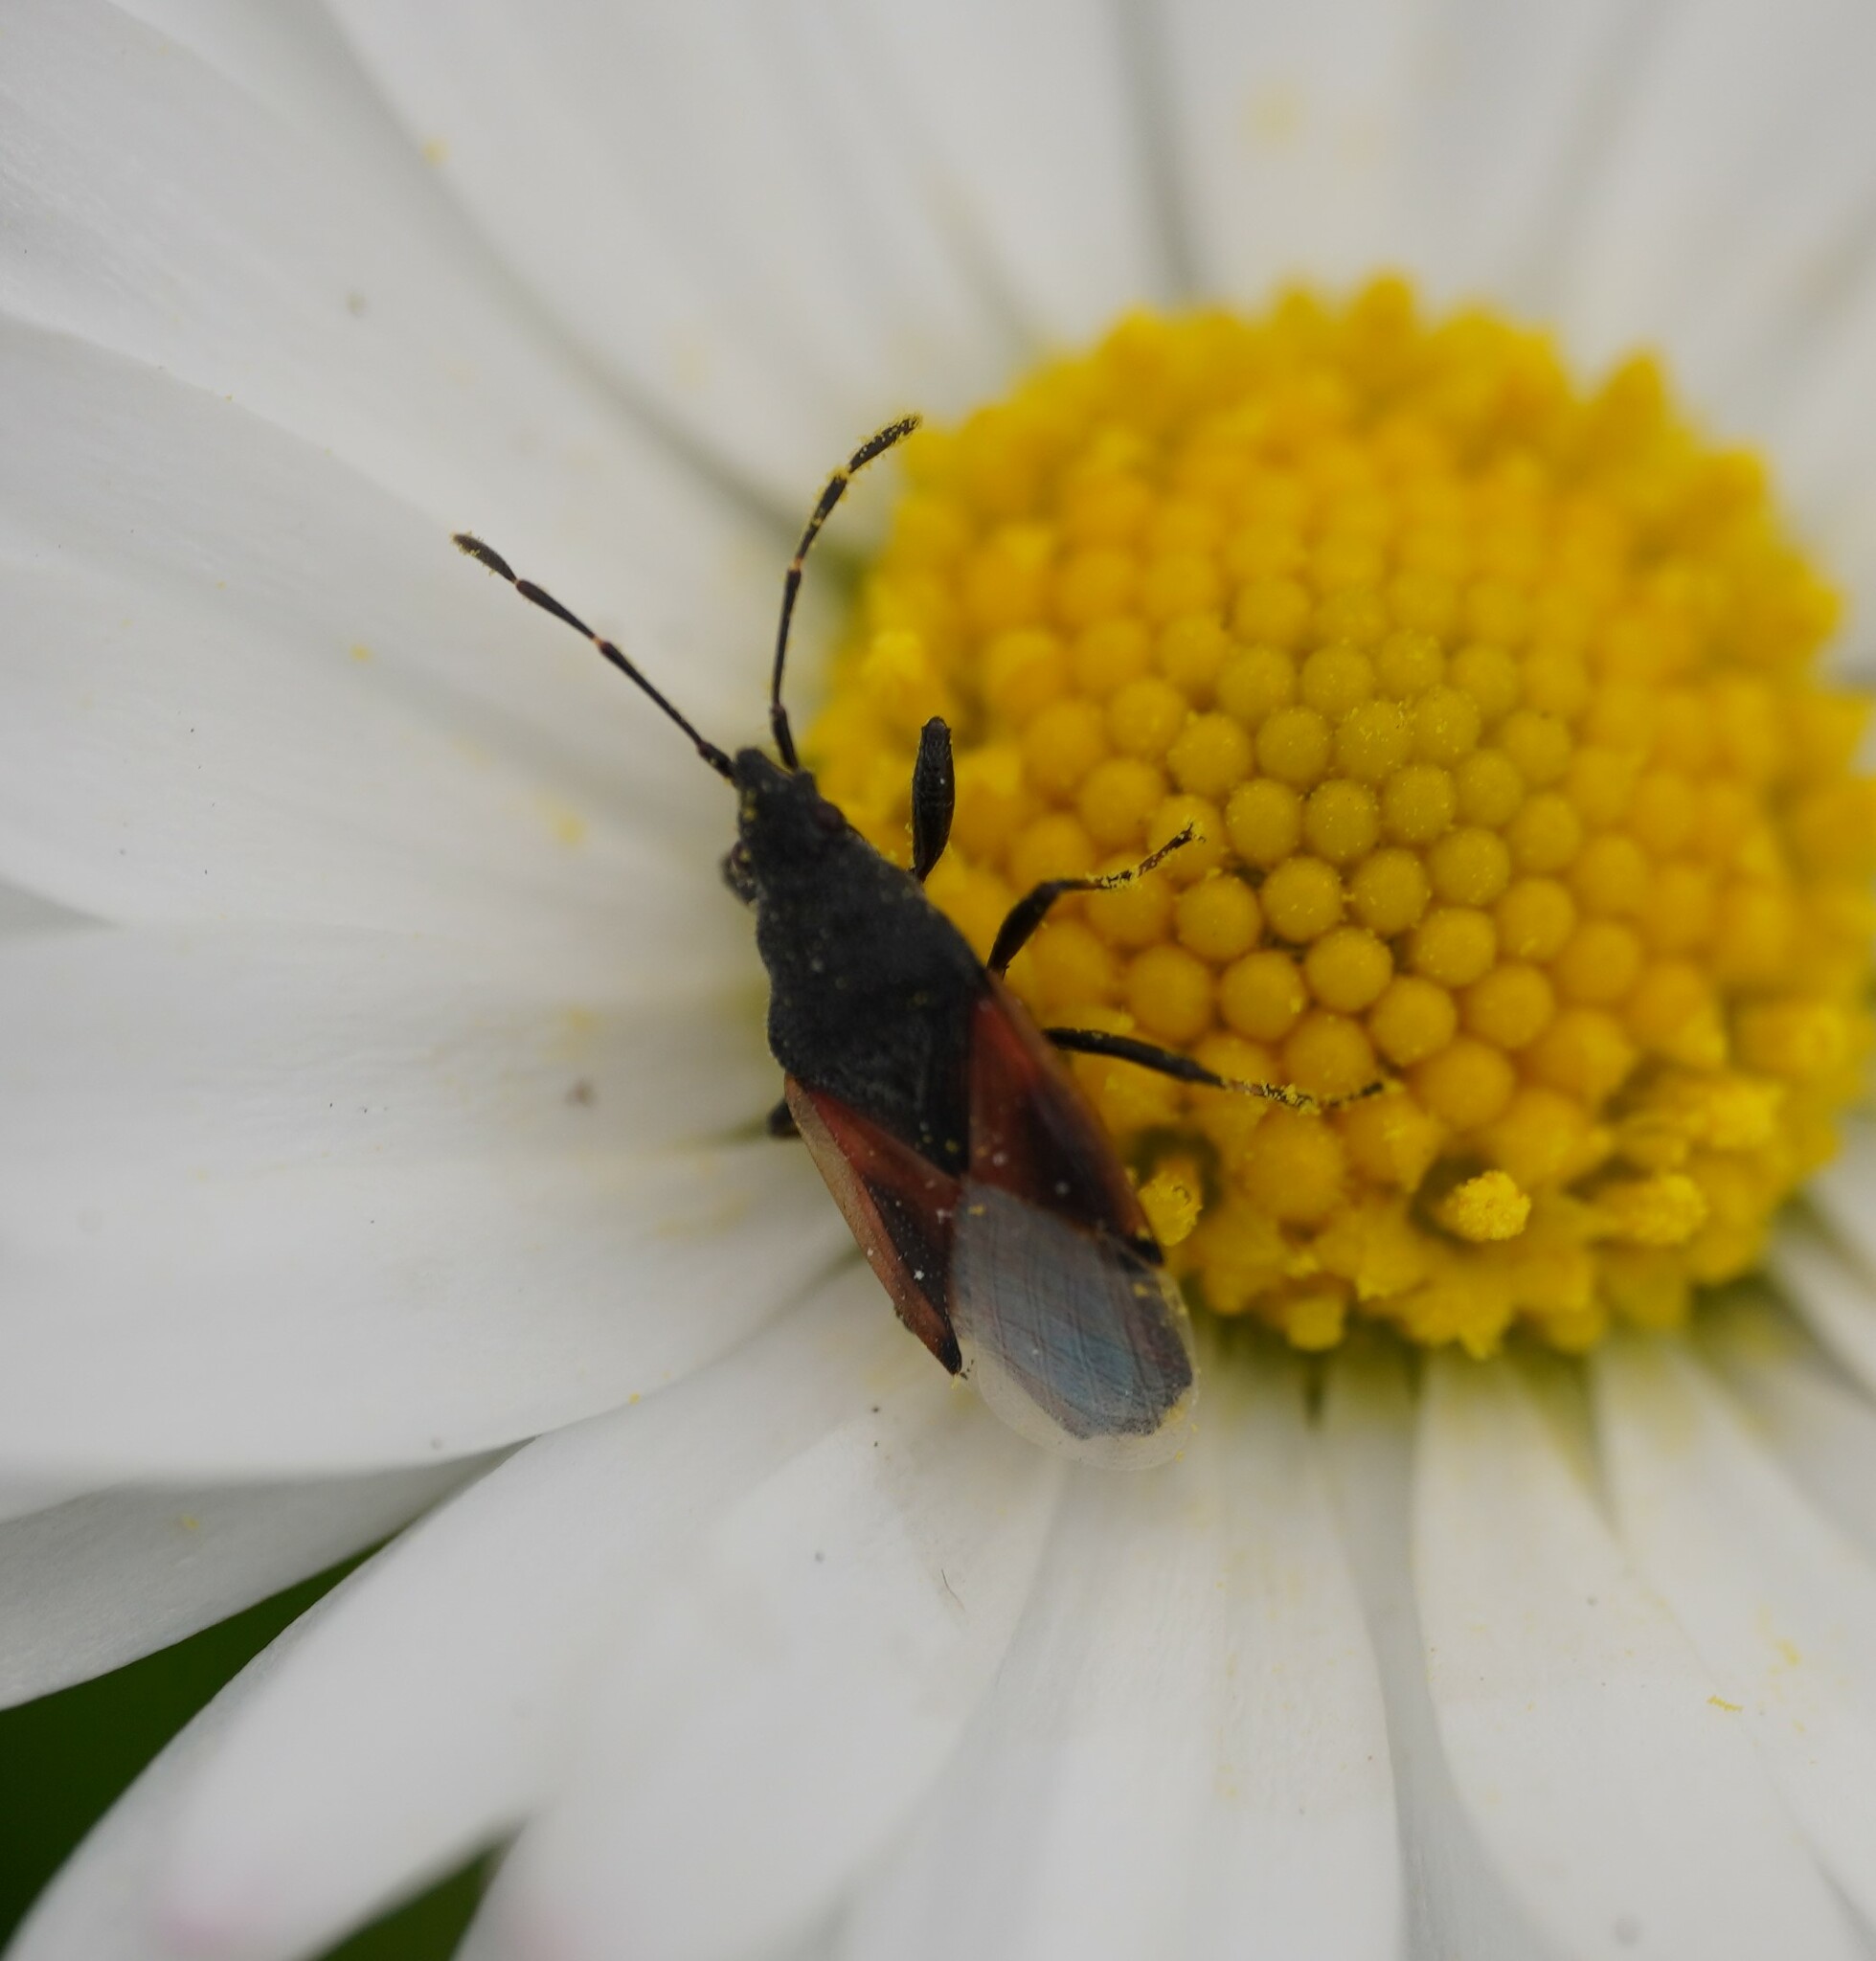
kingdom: Animalia
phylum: Arthropoda
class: Insecta
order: Hemiptera
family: Oxycarenidae
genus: Oxycarenus
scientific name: Oxycarenus lavaterae
